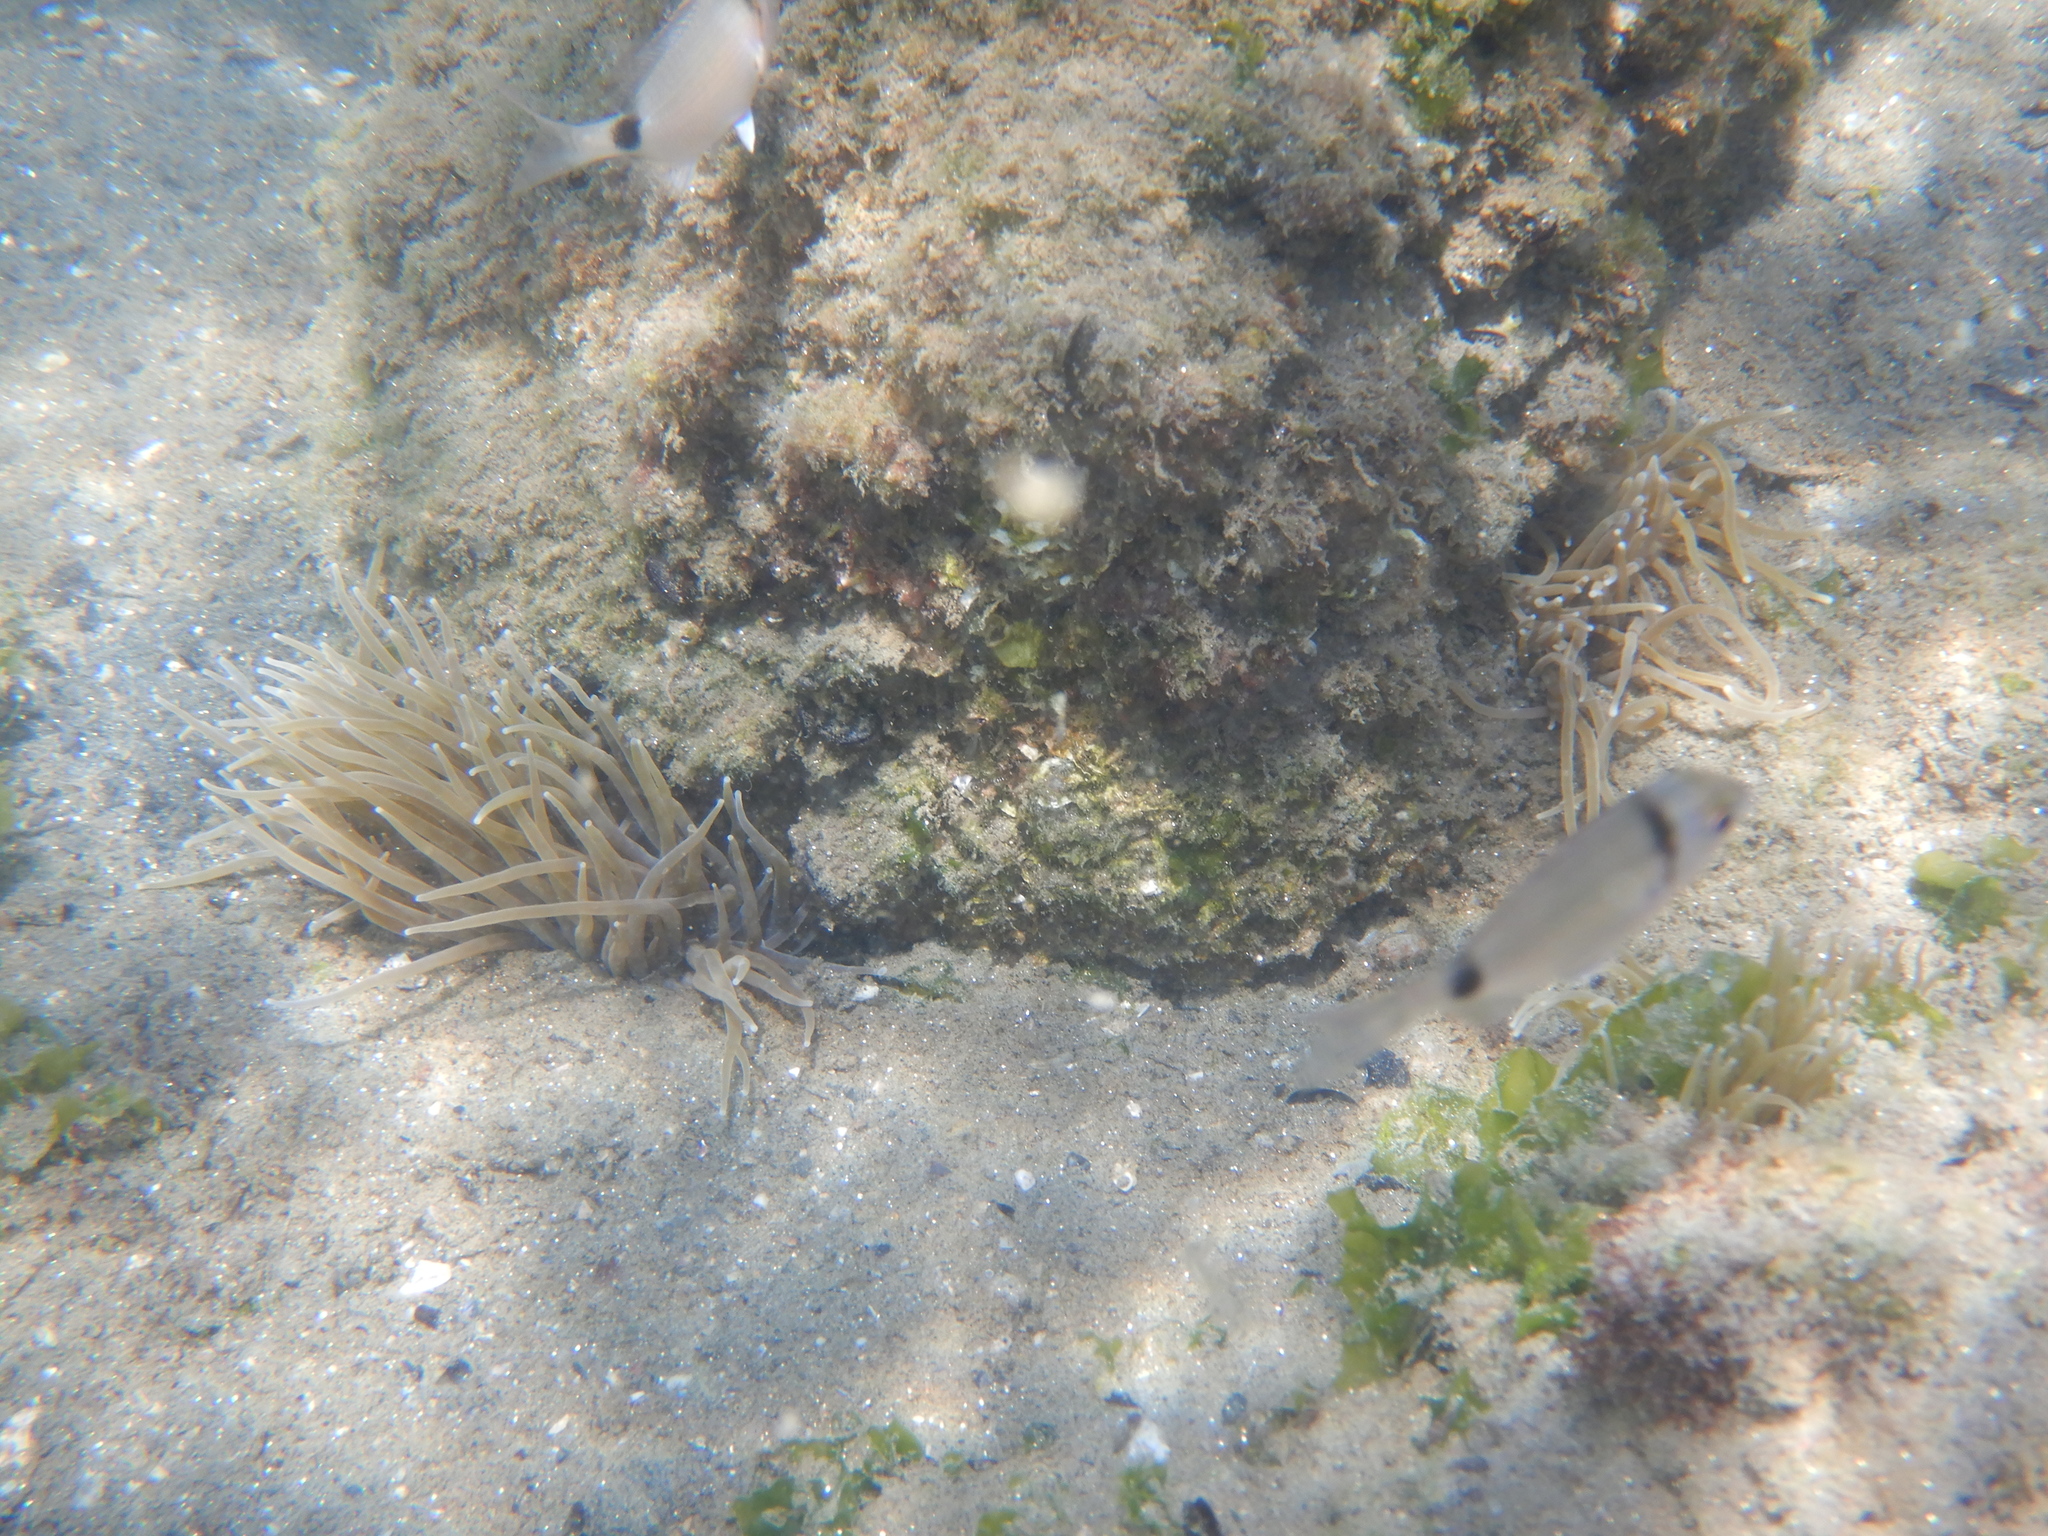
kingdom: Animalia
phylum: Chordata
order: Perciformes
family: Sparidae
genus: Diplodus
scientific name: Diplodus vulgaris
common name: Common two-banded seabream
